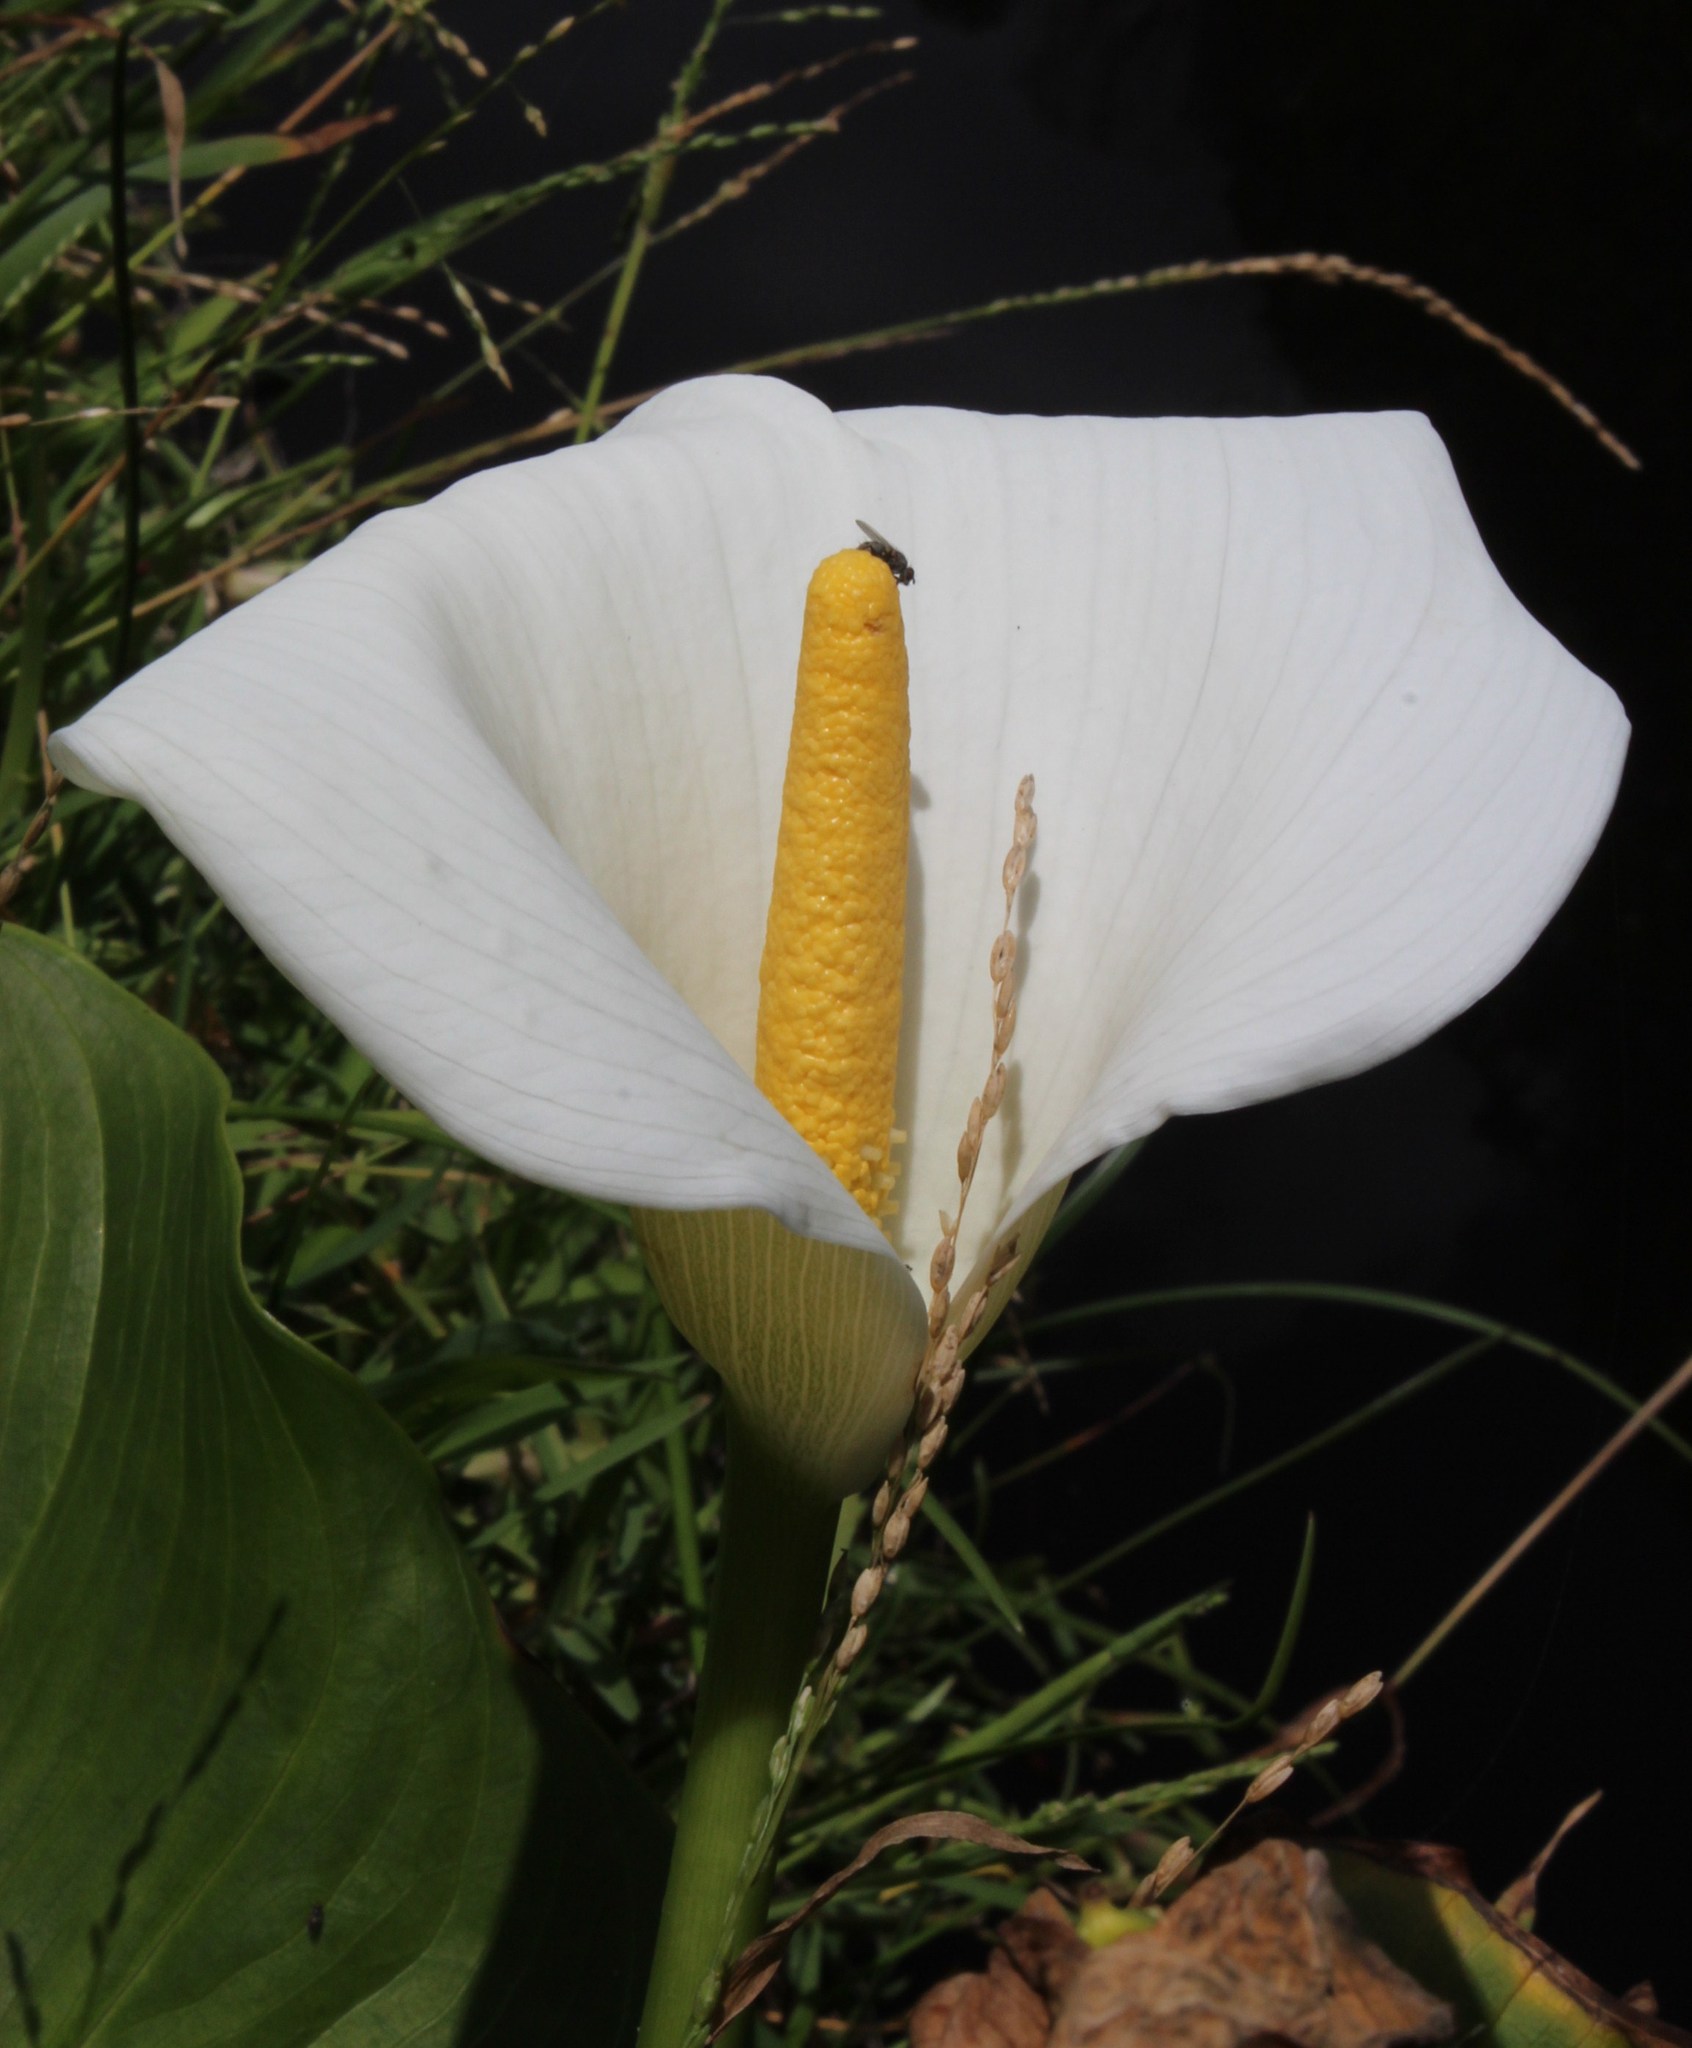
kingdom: Plantae
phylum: Tracheophyta
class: Liliopsida
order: Alismatales
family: Araceae
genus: Zantedeschia
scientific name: Zantedeschia aethiopica
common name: Altar-lily
